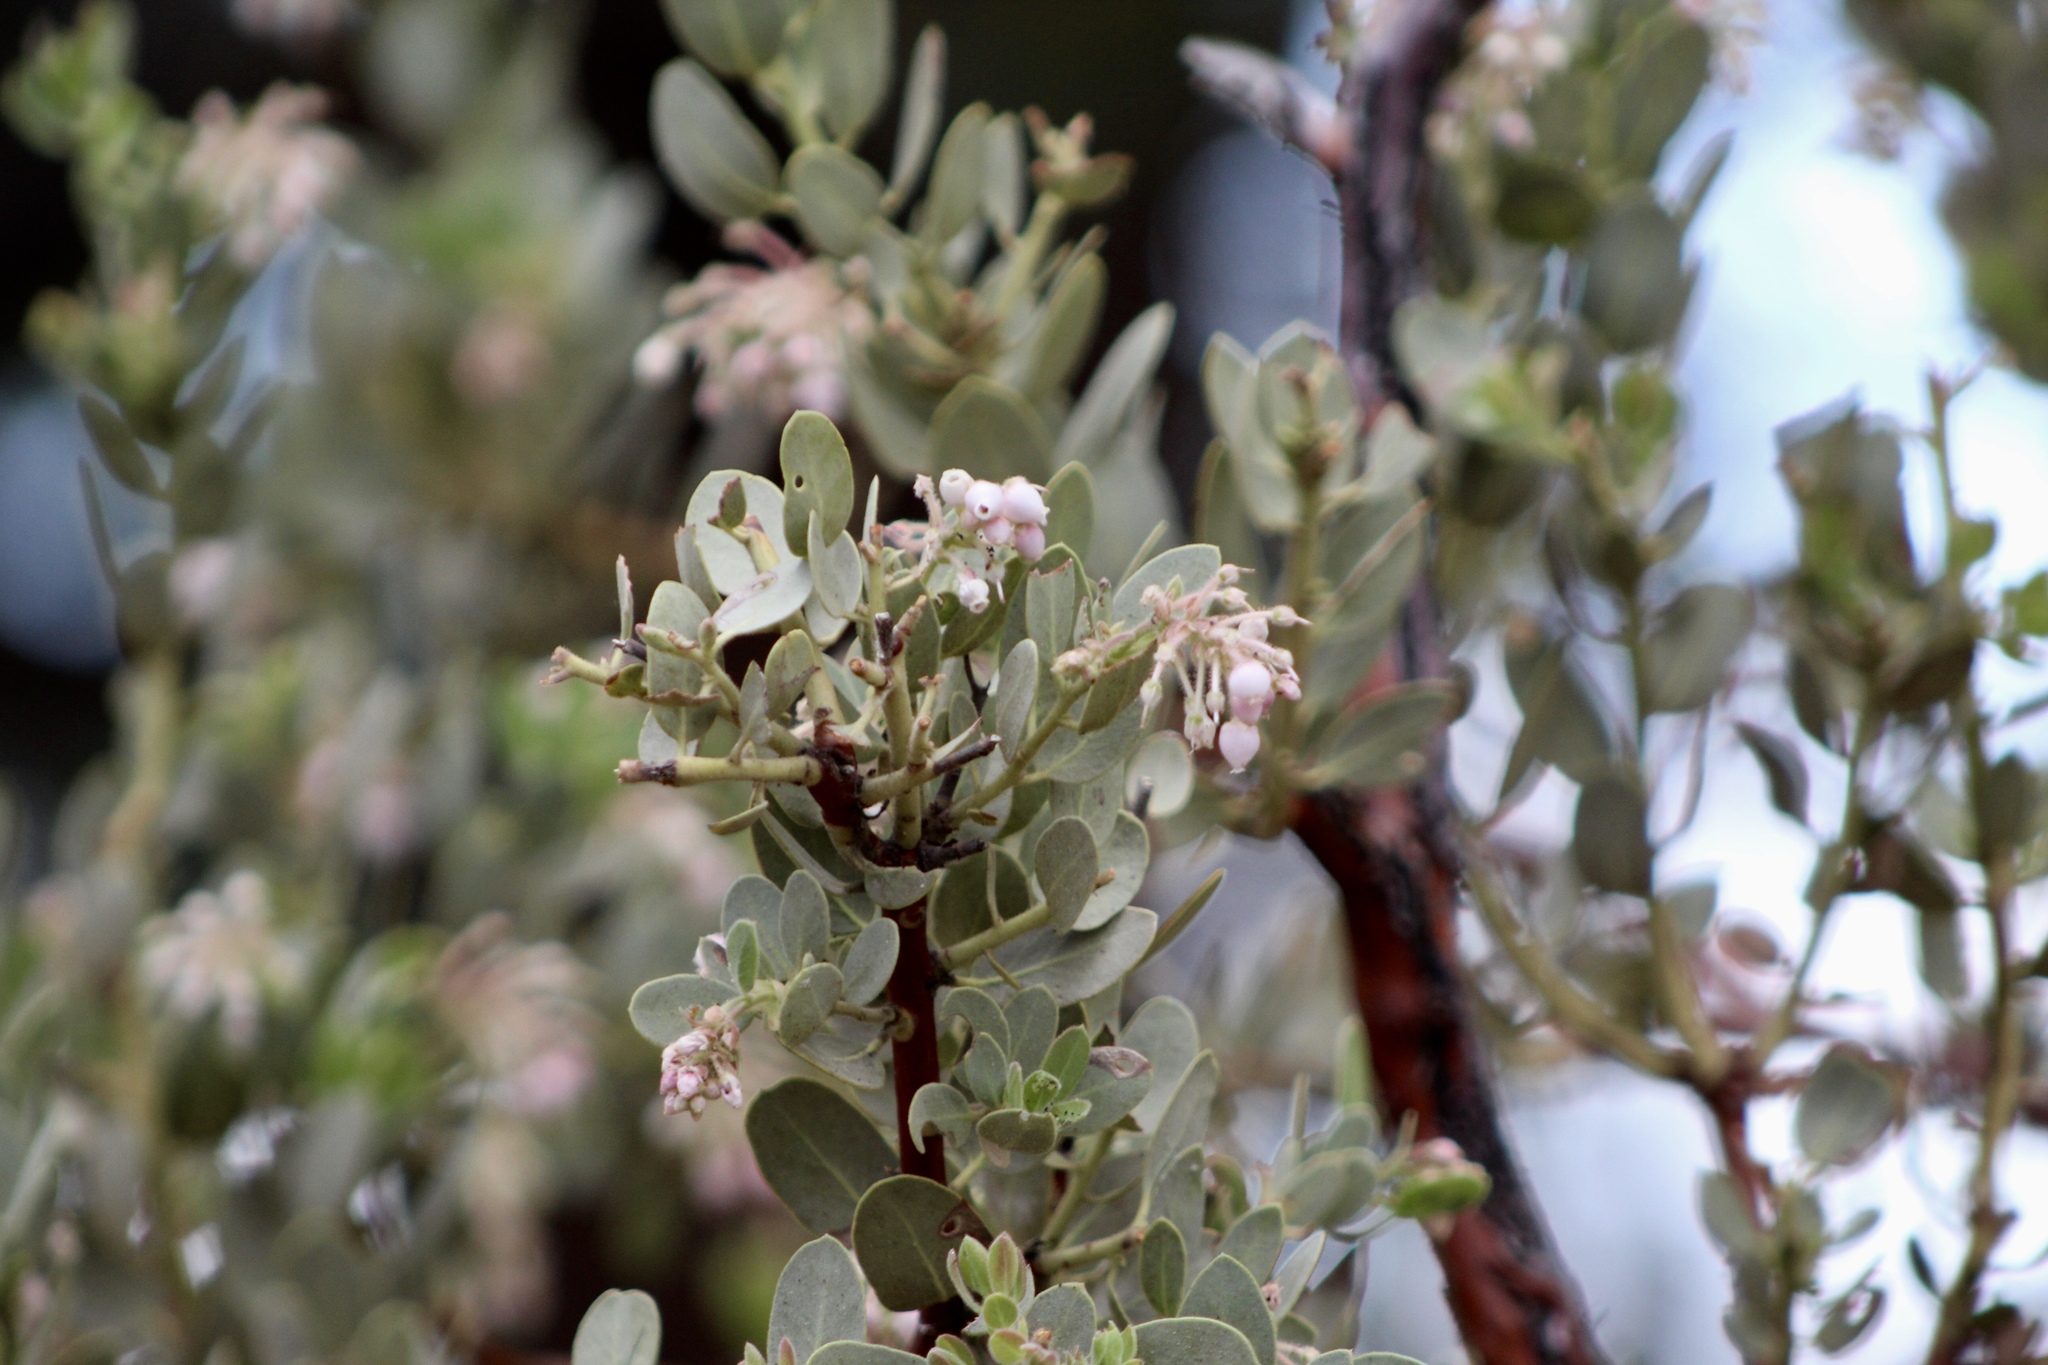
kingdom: Plantae
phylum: Tracheophyta
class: Magnoliopsida
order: Ericales
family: Ericaceae
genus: Arctostaphylos
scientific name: Arctostaphylos pringlei
